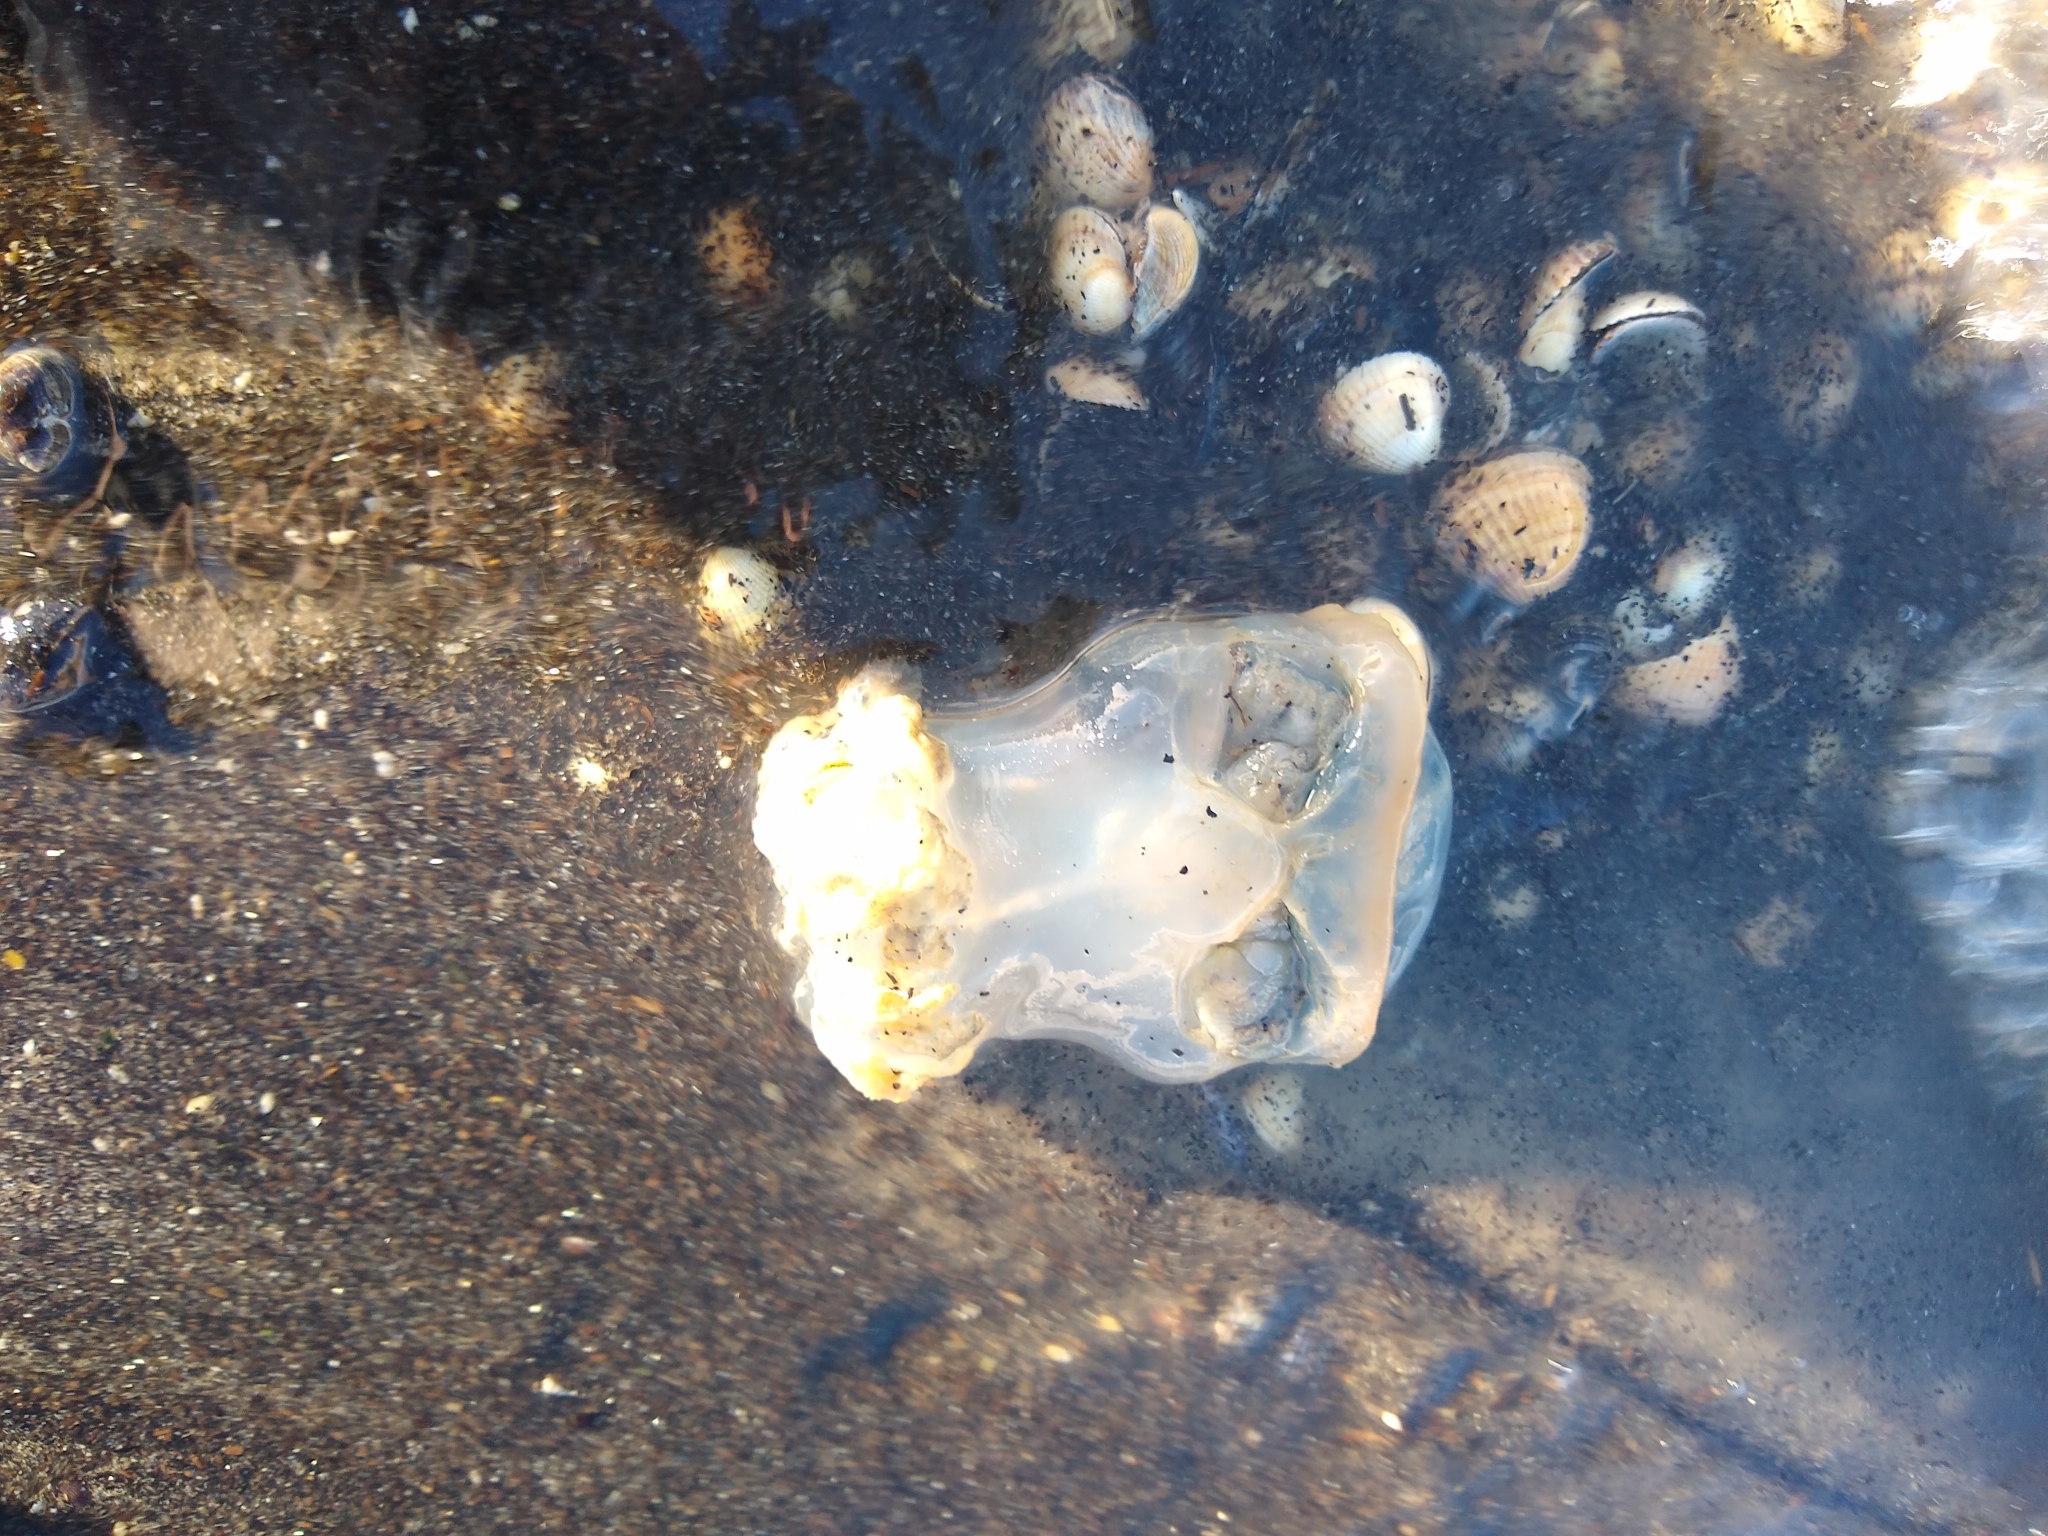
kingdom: Animalia
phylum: Cnidaria
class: Scyphozoa
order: Rhizostomeae
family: Rhizostomatidae
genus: Rhizostoma
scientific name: Rhizostoma octopus
